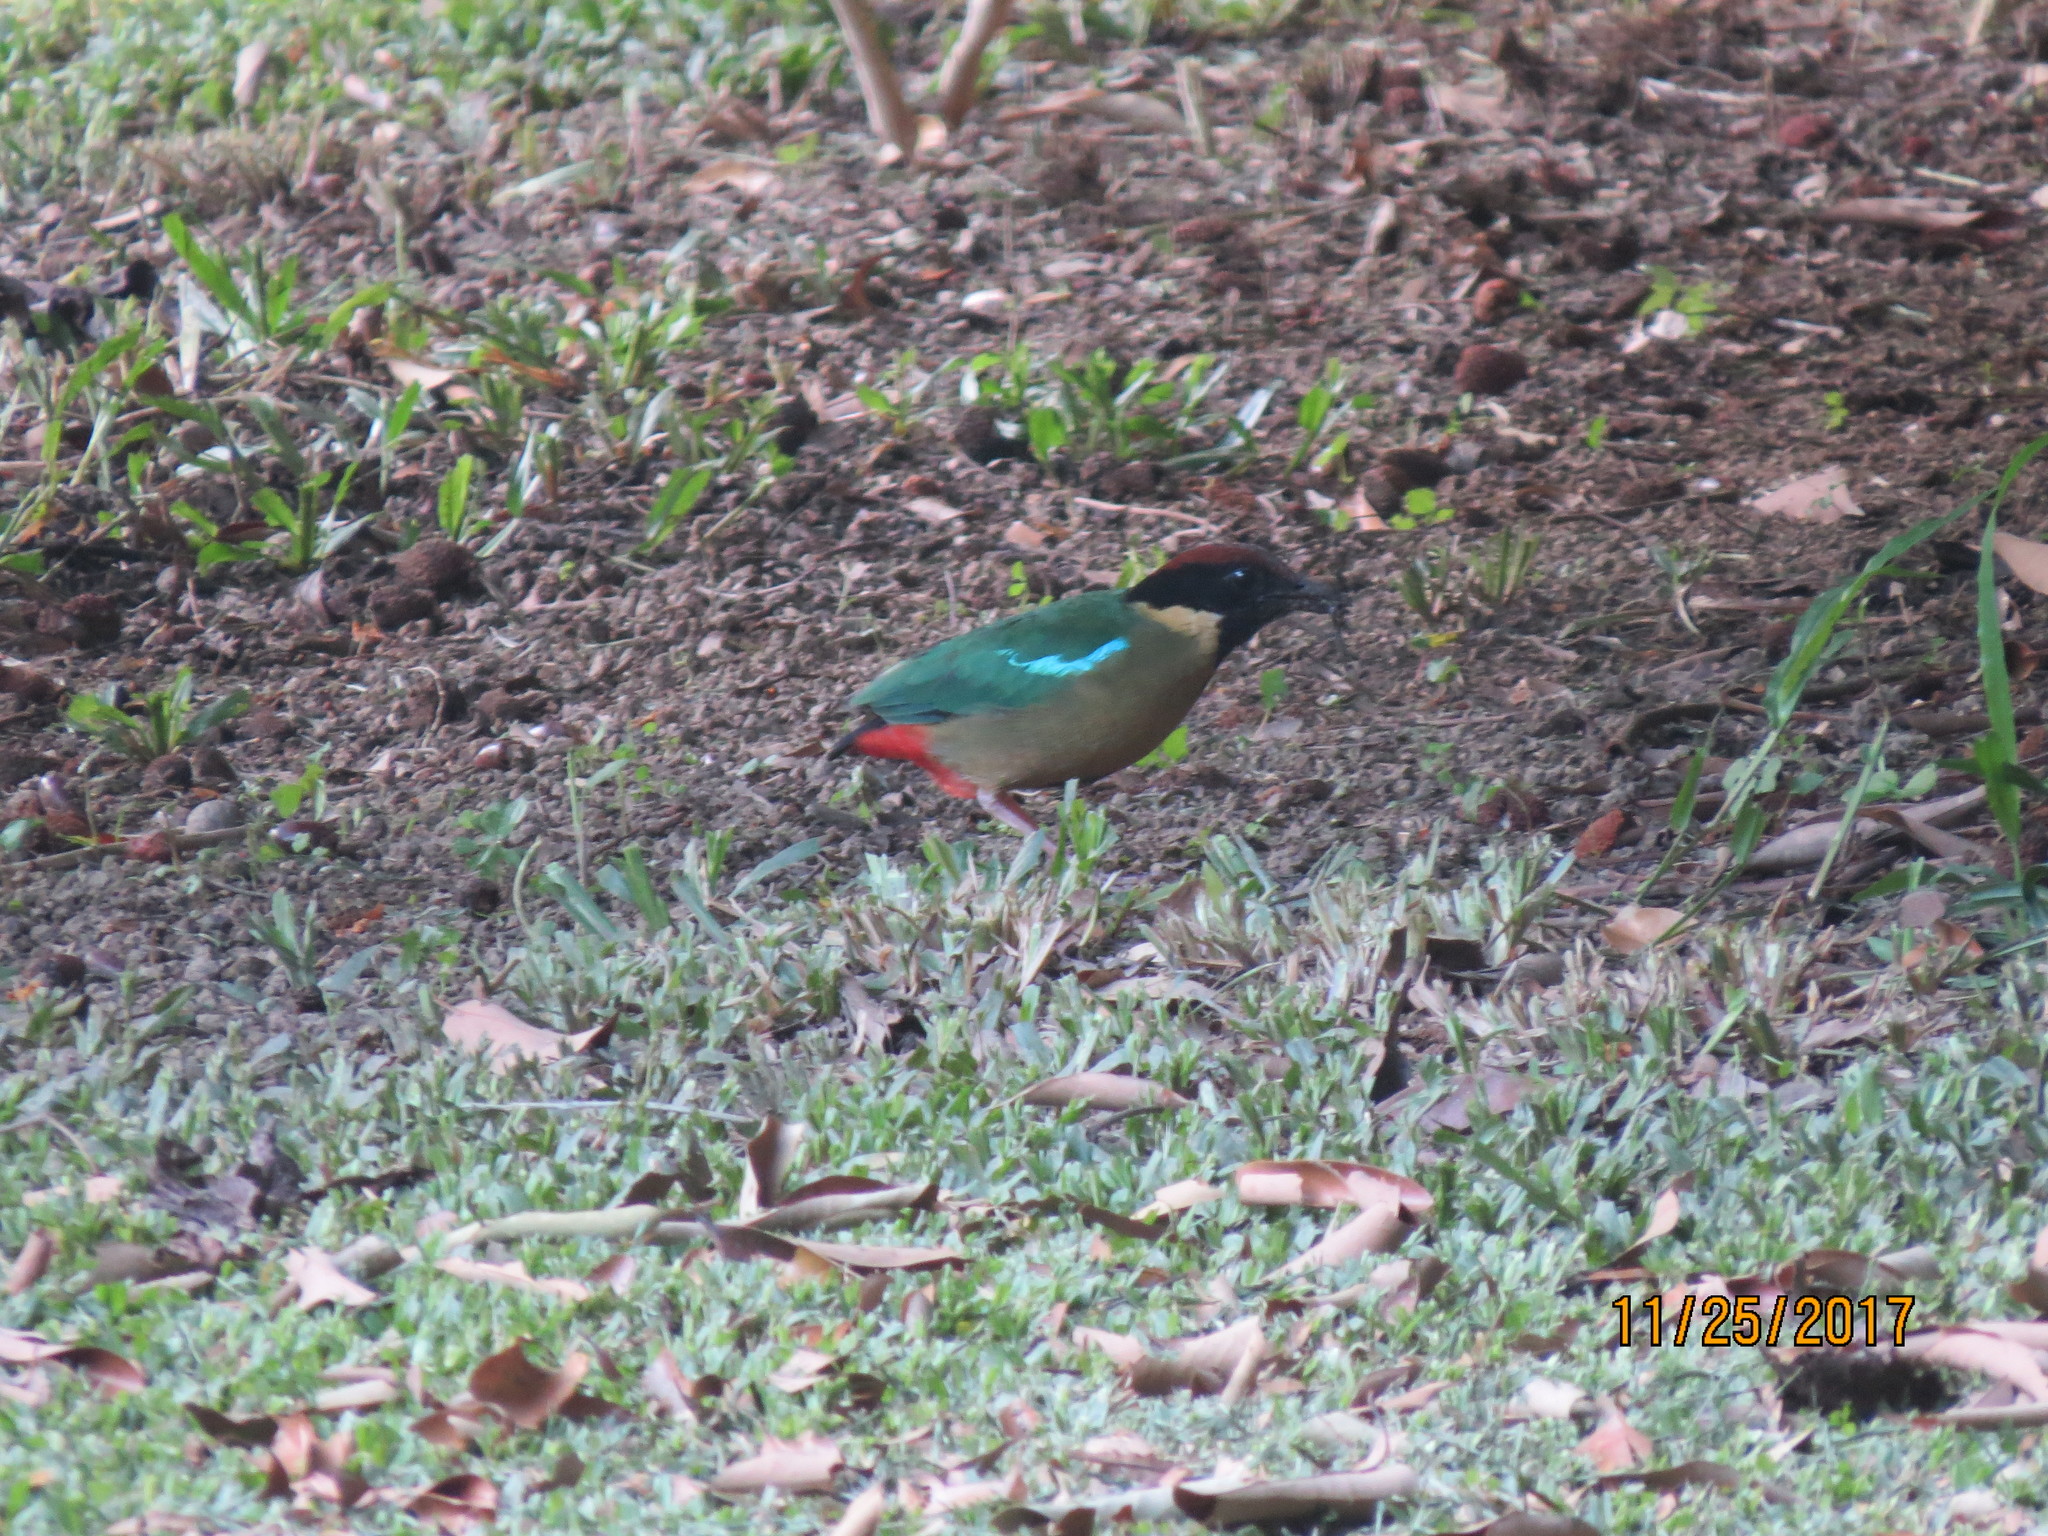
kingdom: Animalia
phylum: Chordata
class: Aves
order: Passeriformes
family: Pittidae
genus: Pitta
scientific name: Pitta versicolor
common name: Noisy pitta
